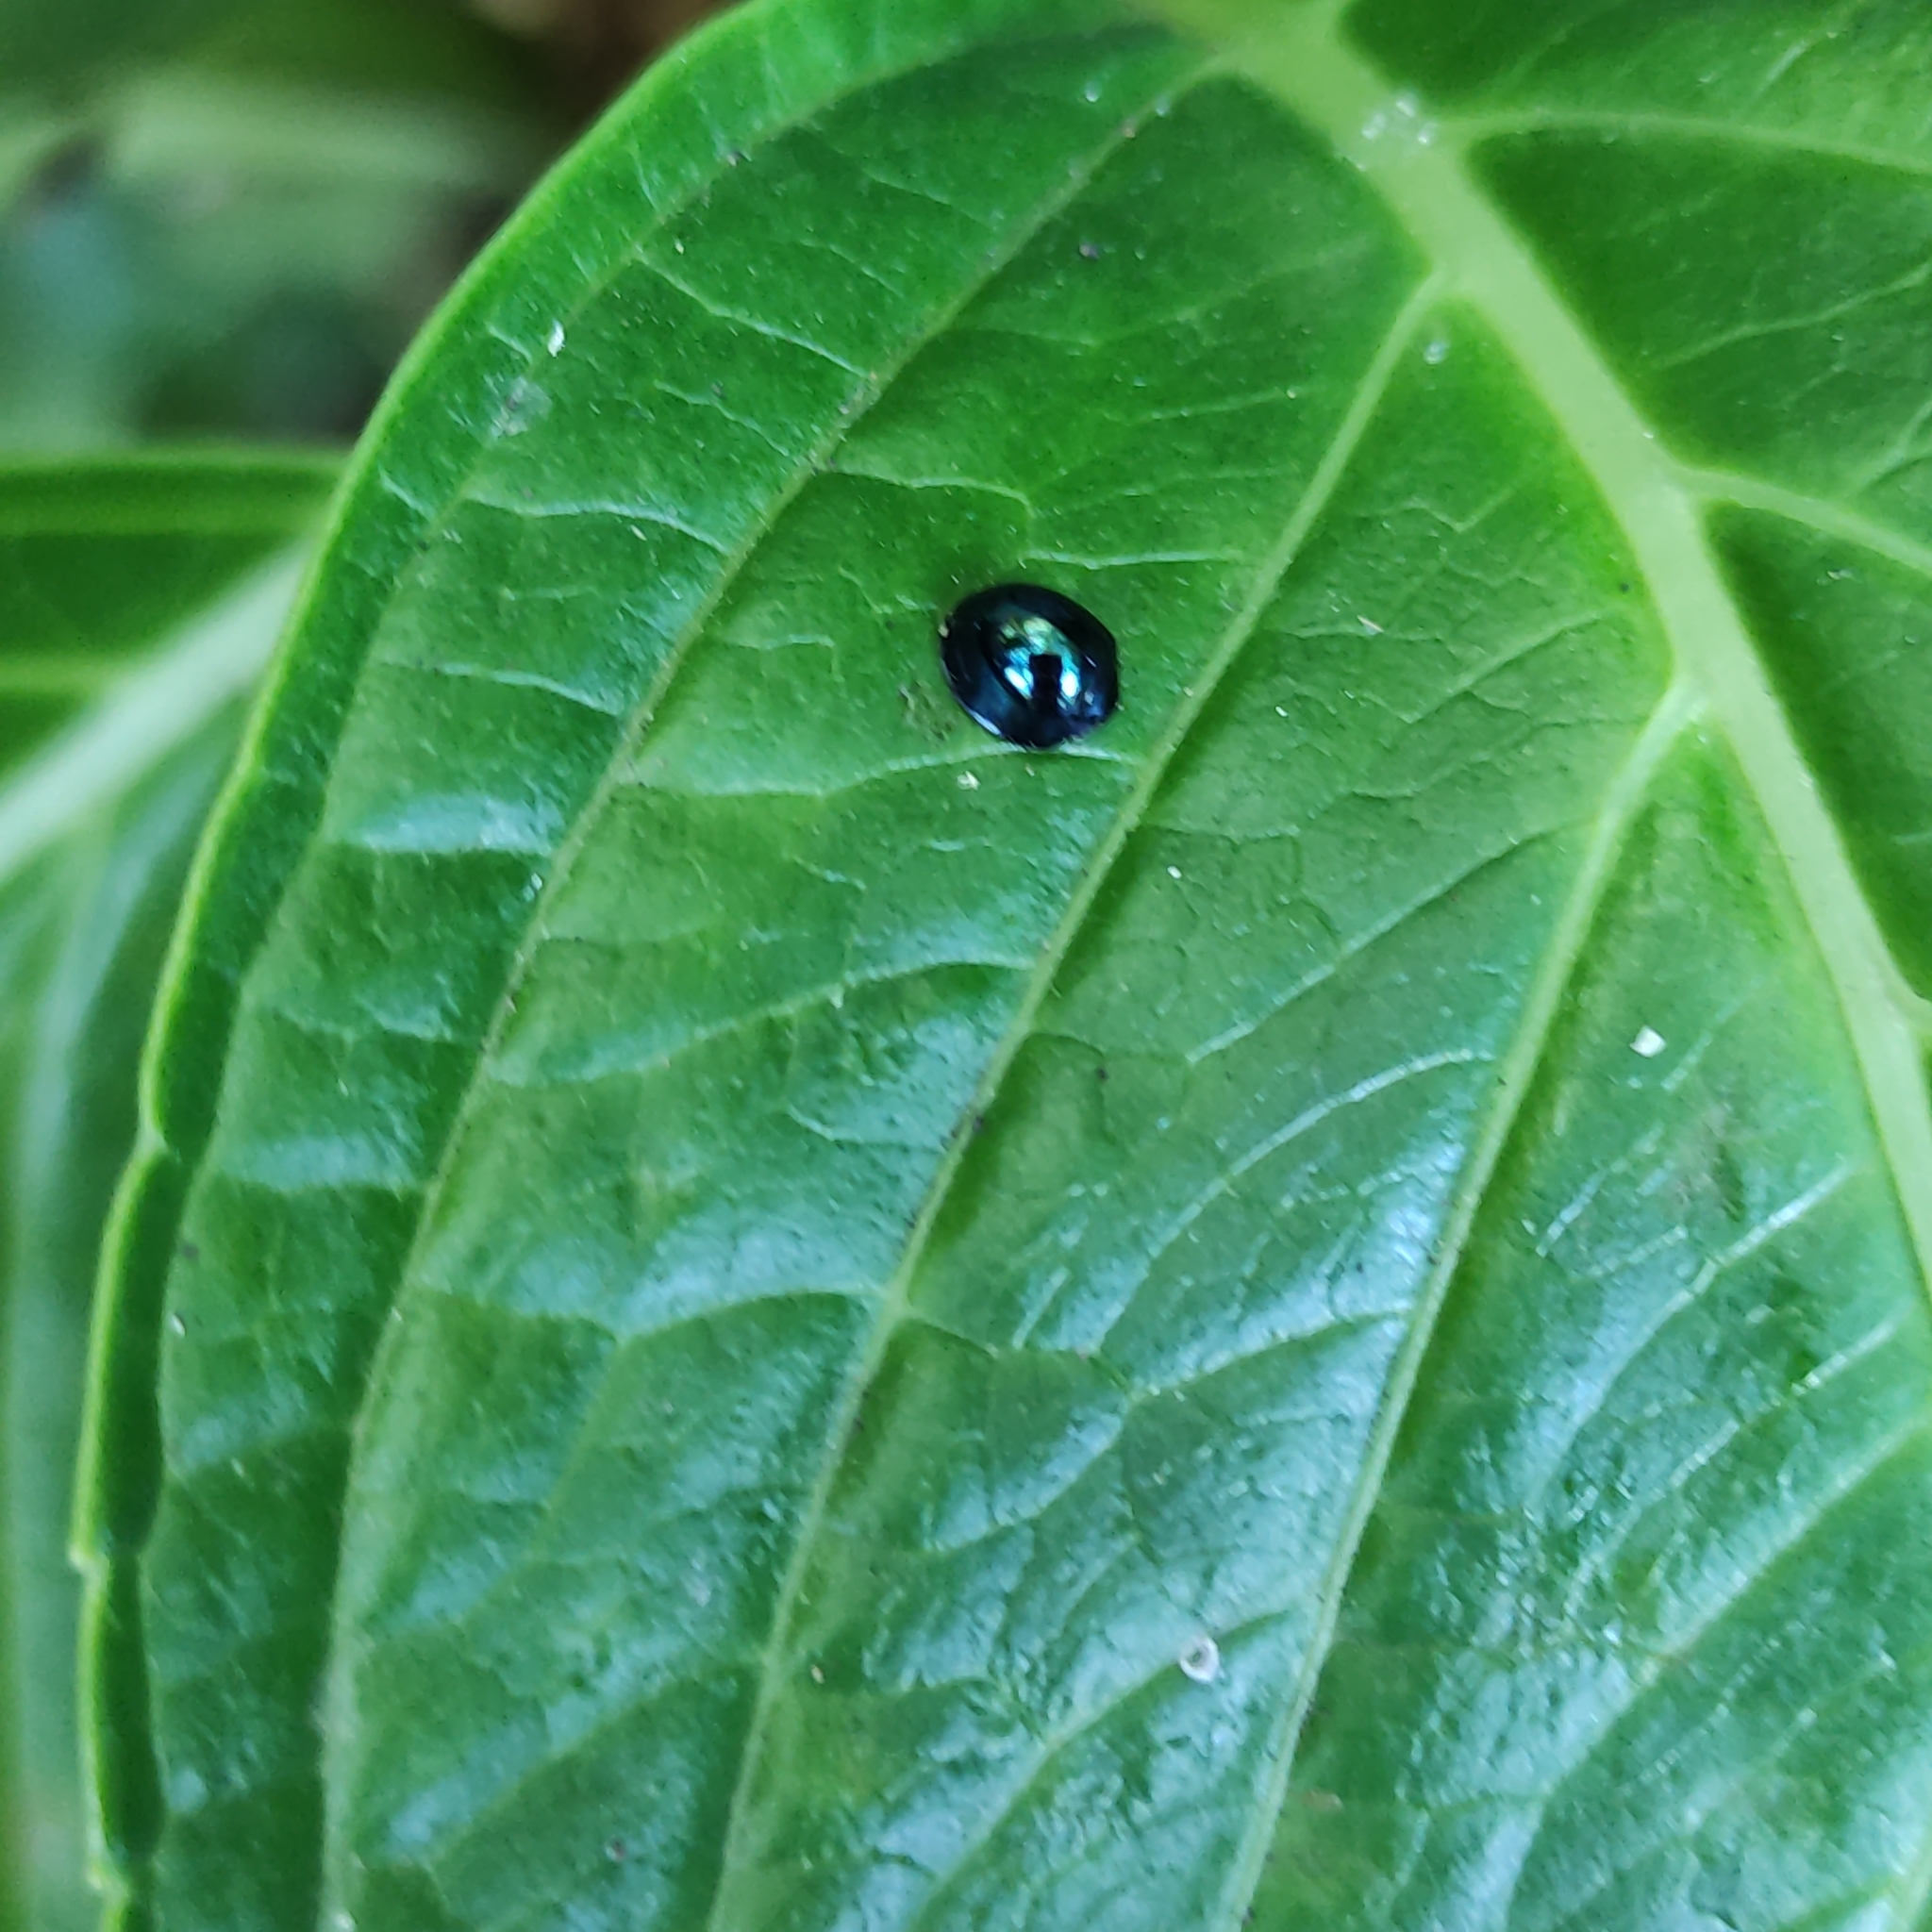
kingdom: Animalia
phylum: Arthropoda
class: Insecta
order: Coleoptera
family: Coccinellidae
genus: Halmus
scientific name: Halmus chalybeus
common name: Steel blue ladybird beetle
